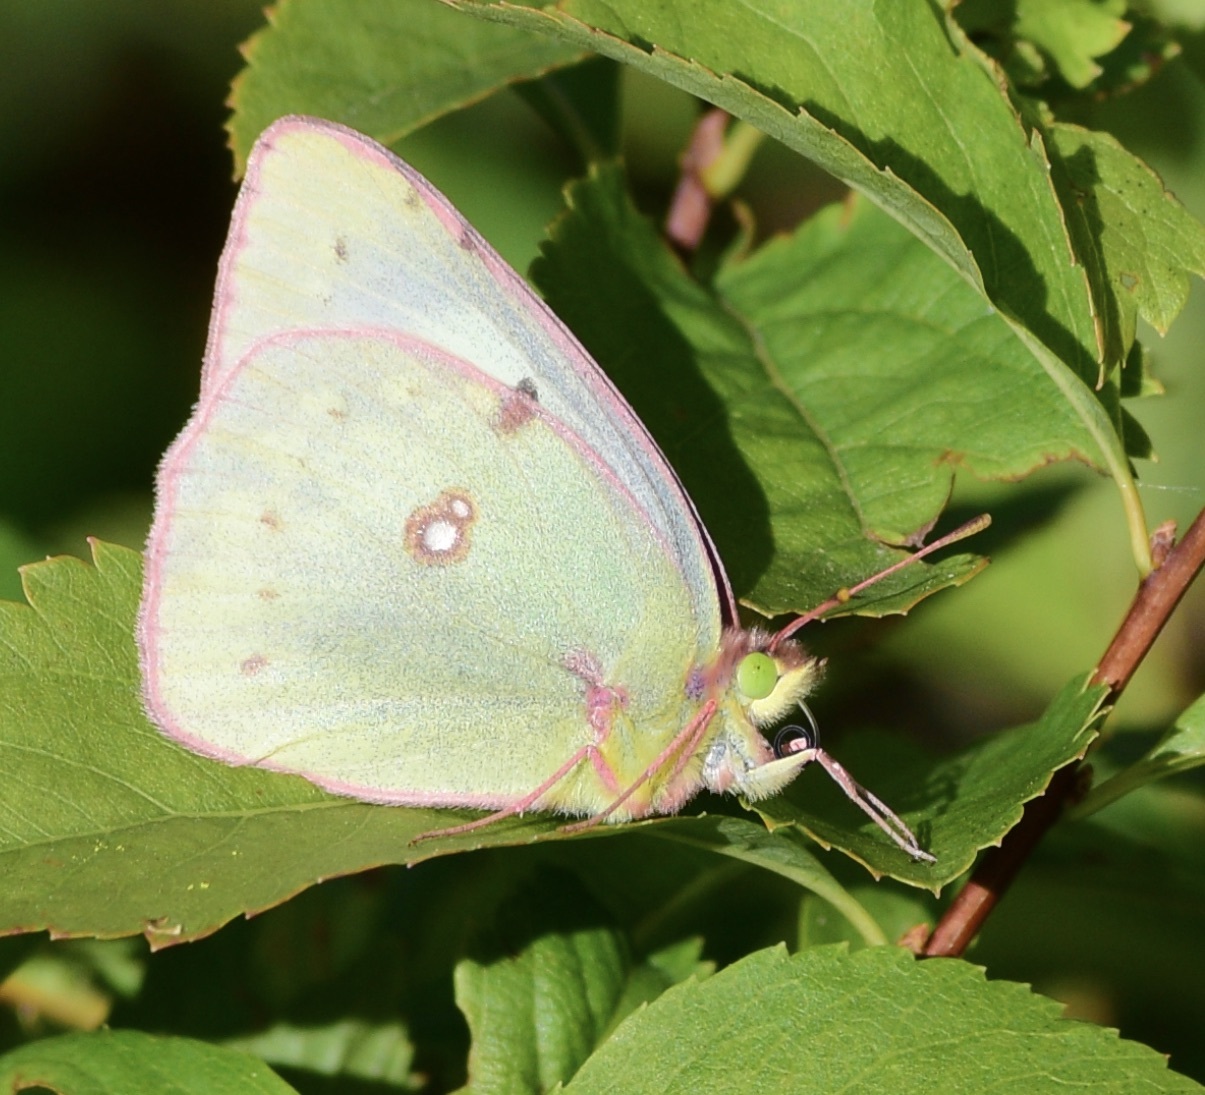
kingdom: Animalia
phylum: Arthropoda
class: Insecta
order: Lepidoptera
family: Pieridae
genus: Colias
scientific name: Colias philodice
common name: Clouded sulphur
